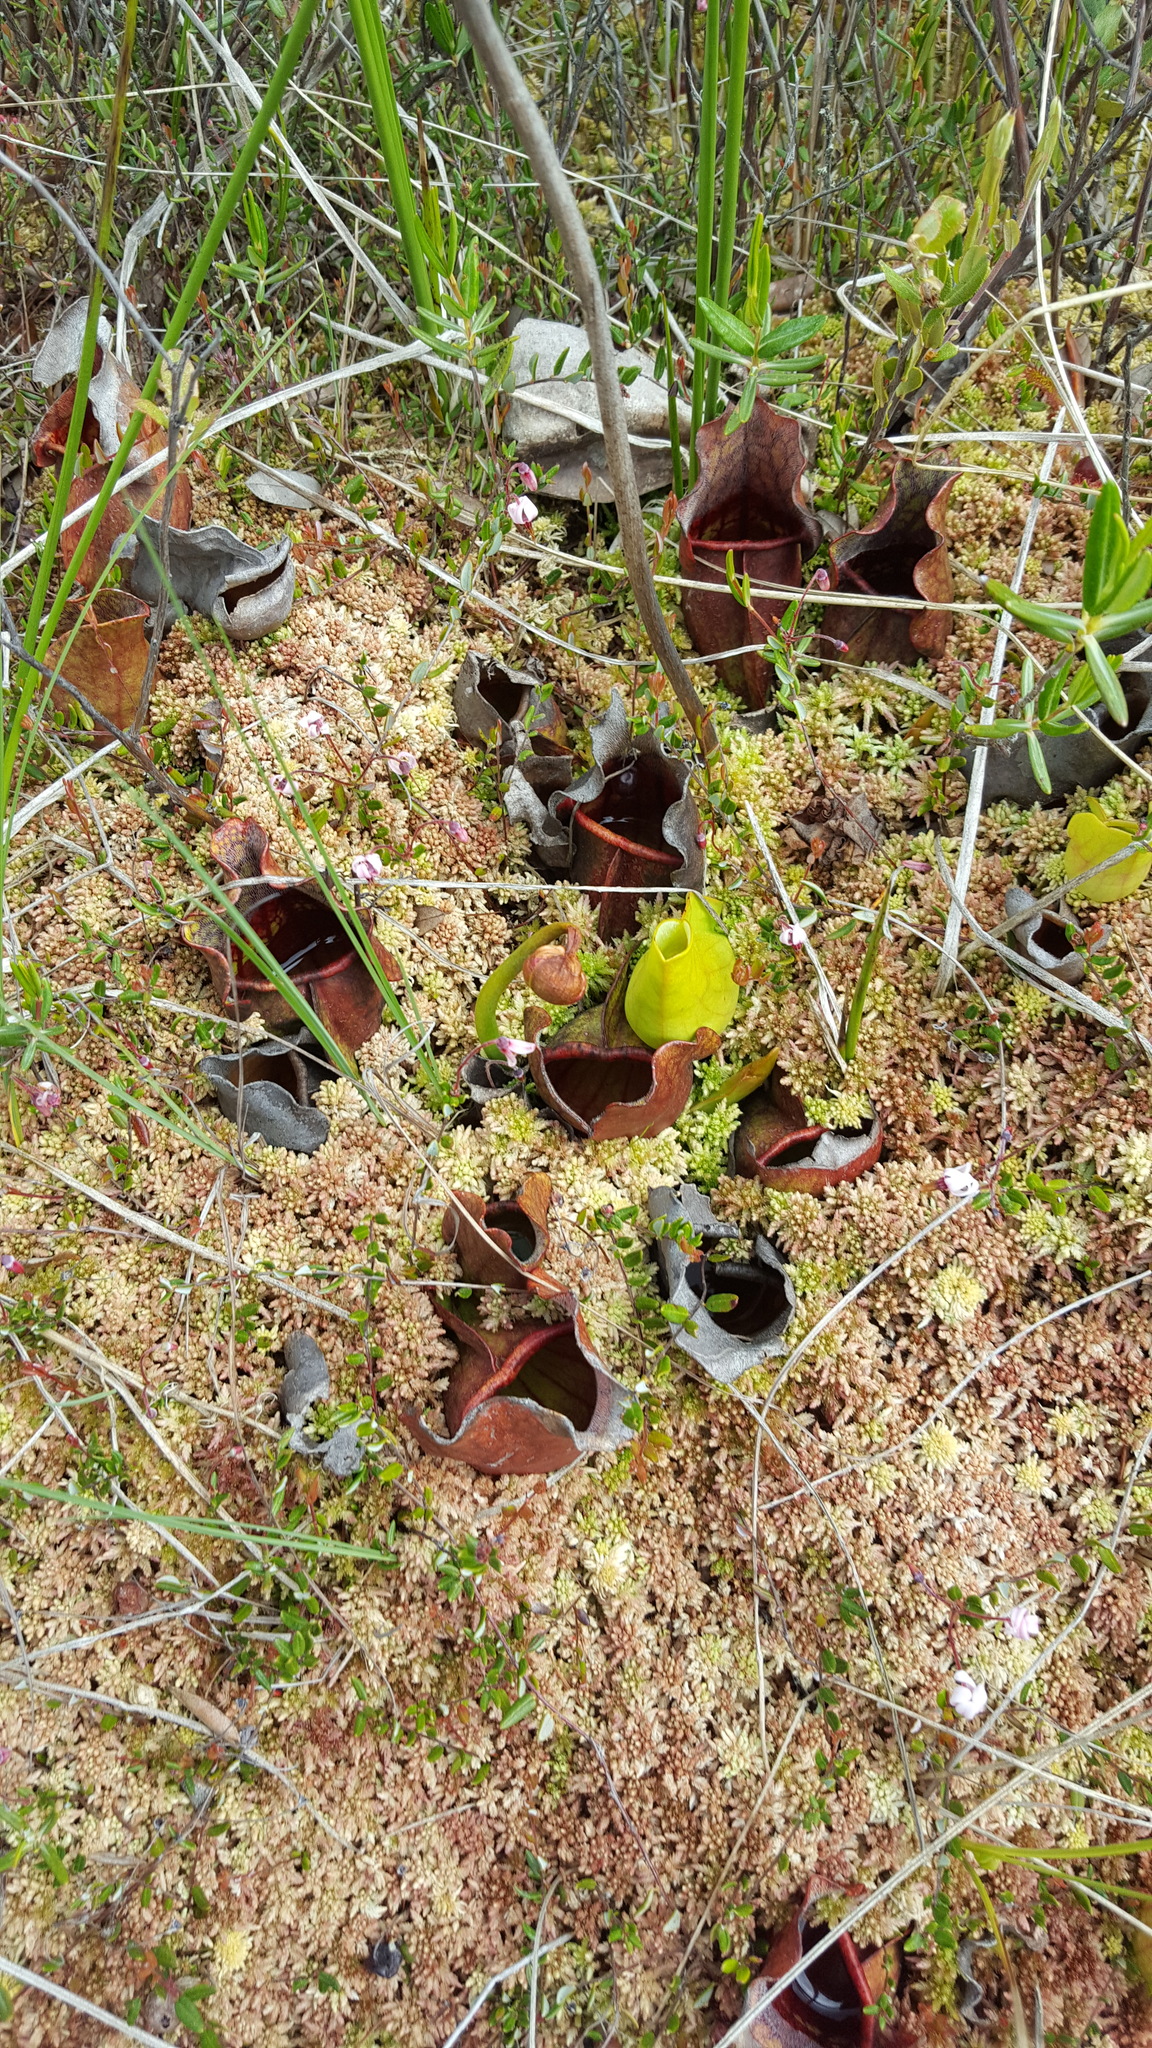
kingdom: Plantae
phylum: Tracheophyta
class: Magnoliopsida
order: Ericales
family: Sarraceniaceae
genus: Sarracenia
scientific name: Sarracenia purpurea
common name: Pitcherplant
